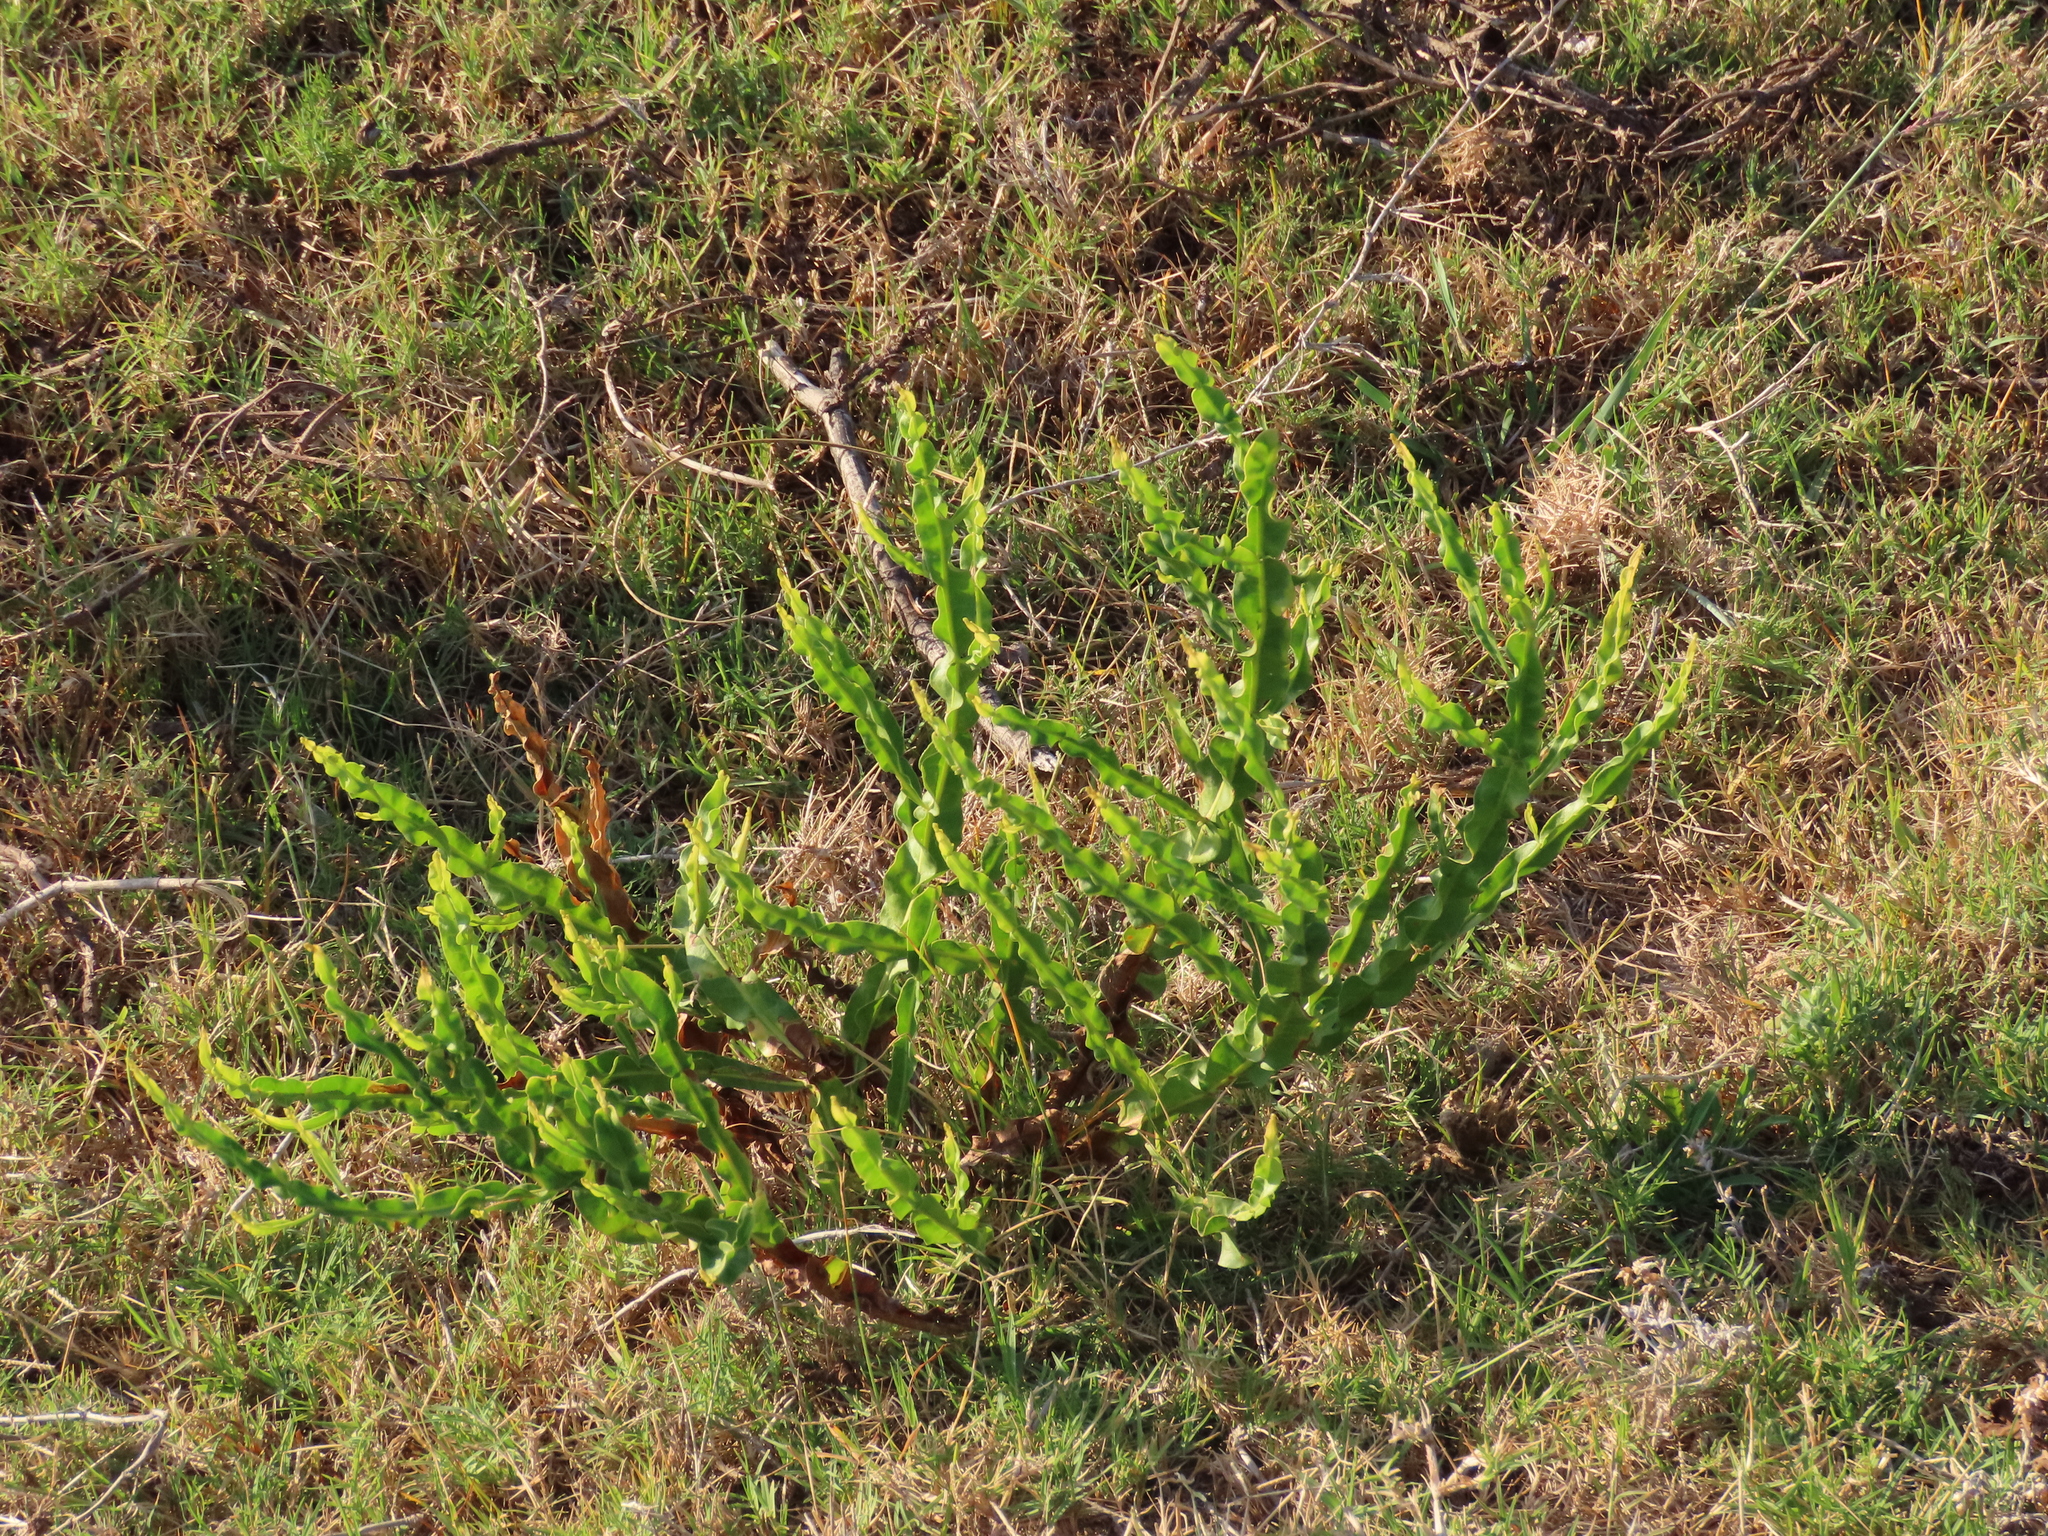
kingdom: Plantae
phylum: Tracheophyta
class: Magnoliopsida
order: Asterales
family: Asteraceae
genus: Baccharis
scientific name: Baccharis trimera
